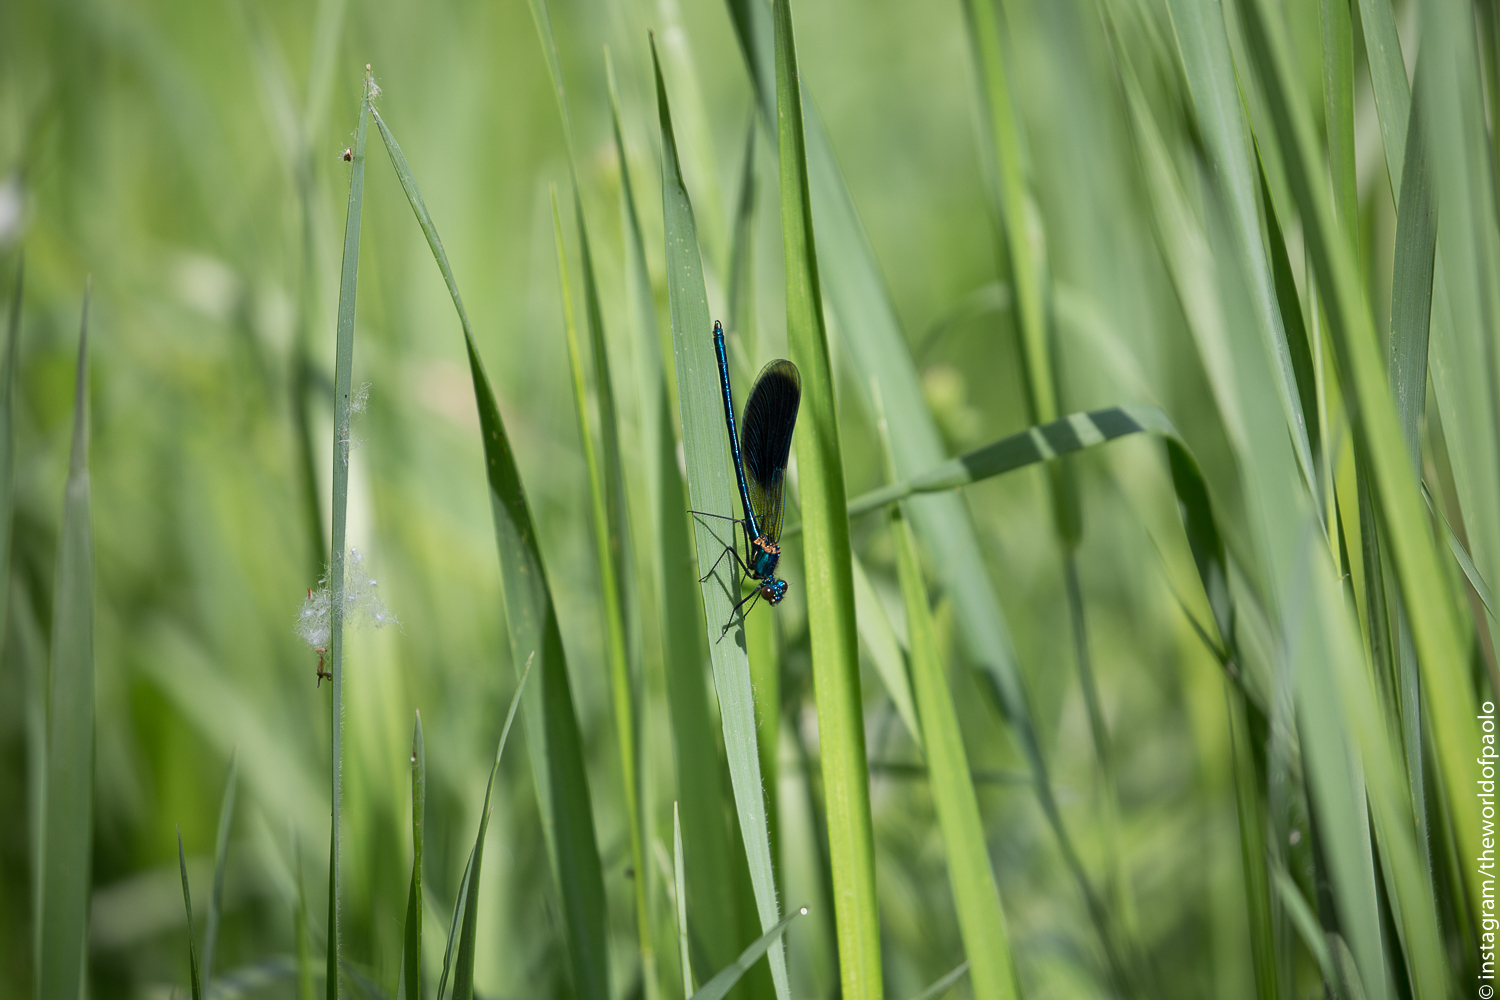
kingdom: Animalia
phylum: Arthropoda
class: Insecta
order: Odonata
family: Calopterygidae
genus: Calopteryx
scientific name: Calopteryx splendens
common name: Banded demoiselle
